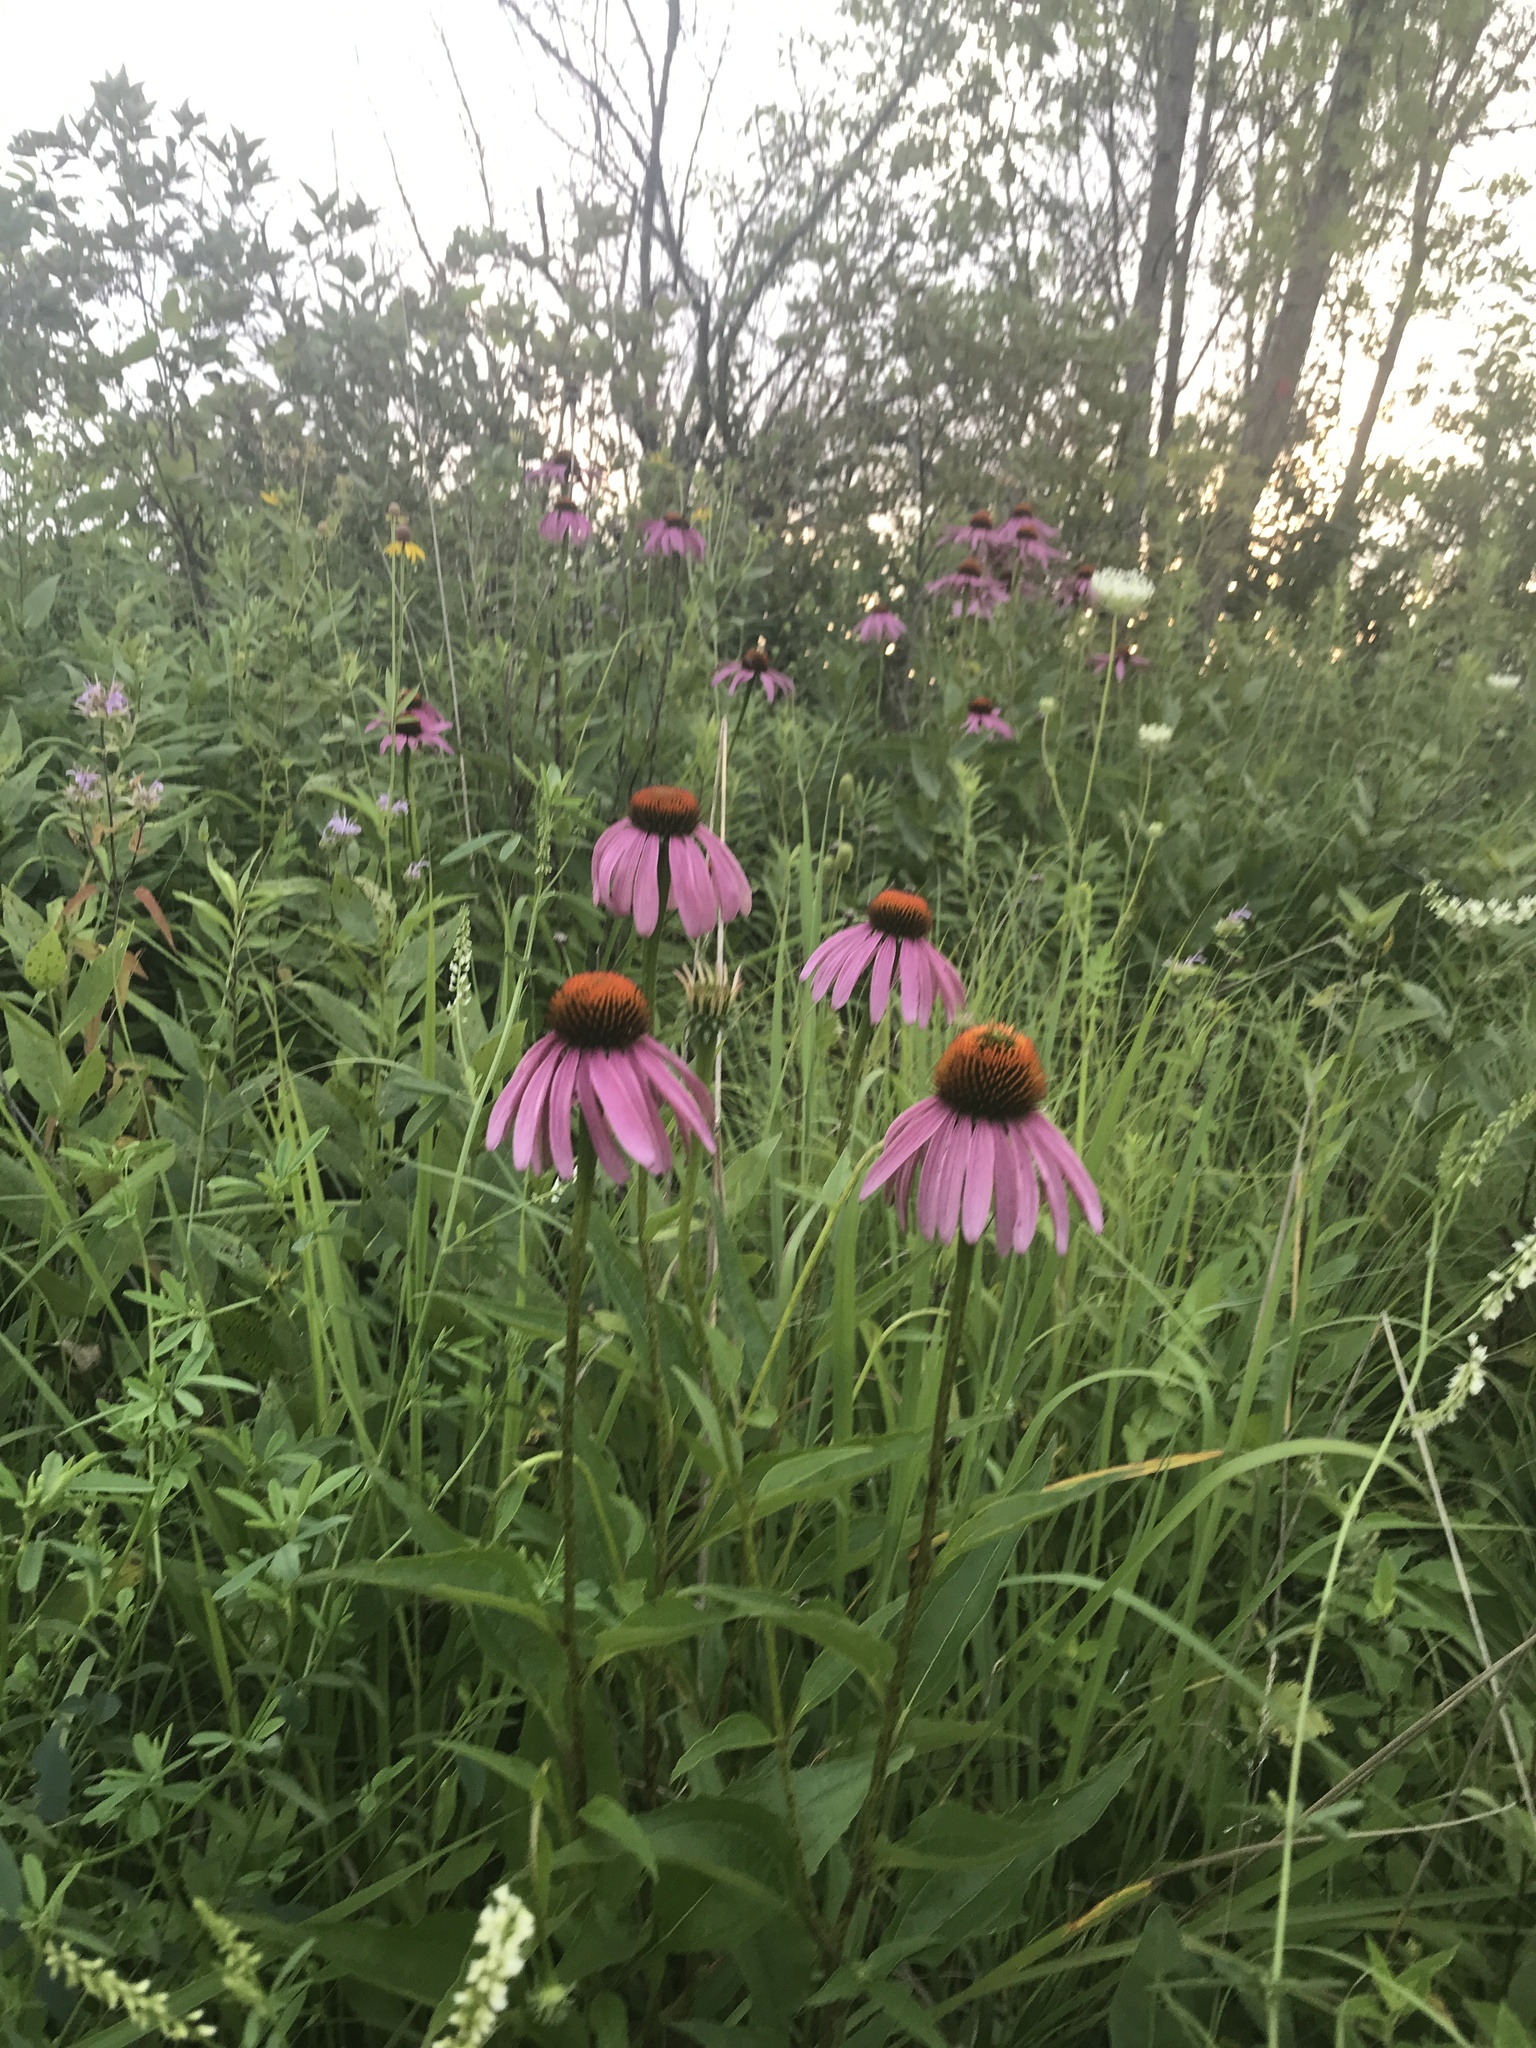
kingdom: Plantae
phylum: Tracheophyta
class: Magnoliopsida
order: Asterales
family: Asteraceae
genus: Echinacea
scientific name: Echinacea purpurea
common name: Broad-leaved purple coneflower
